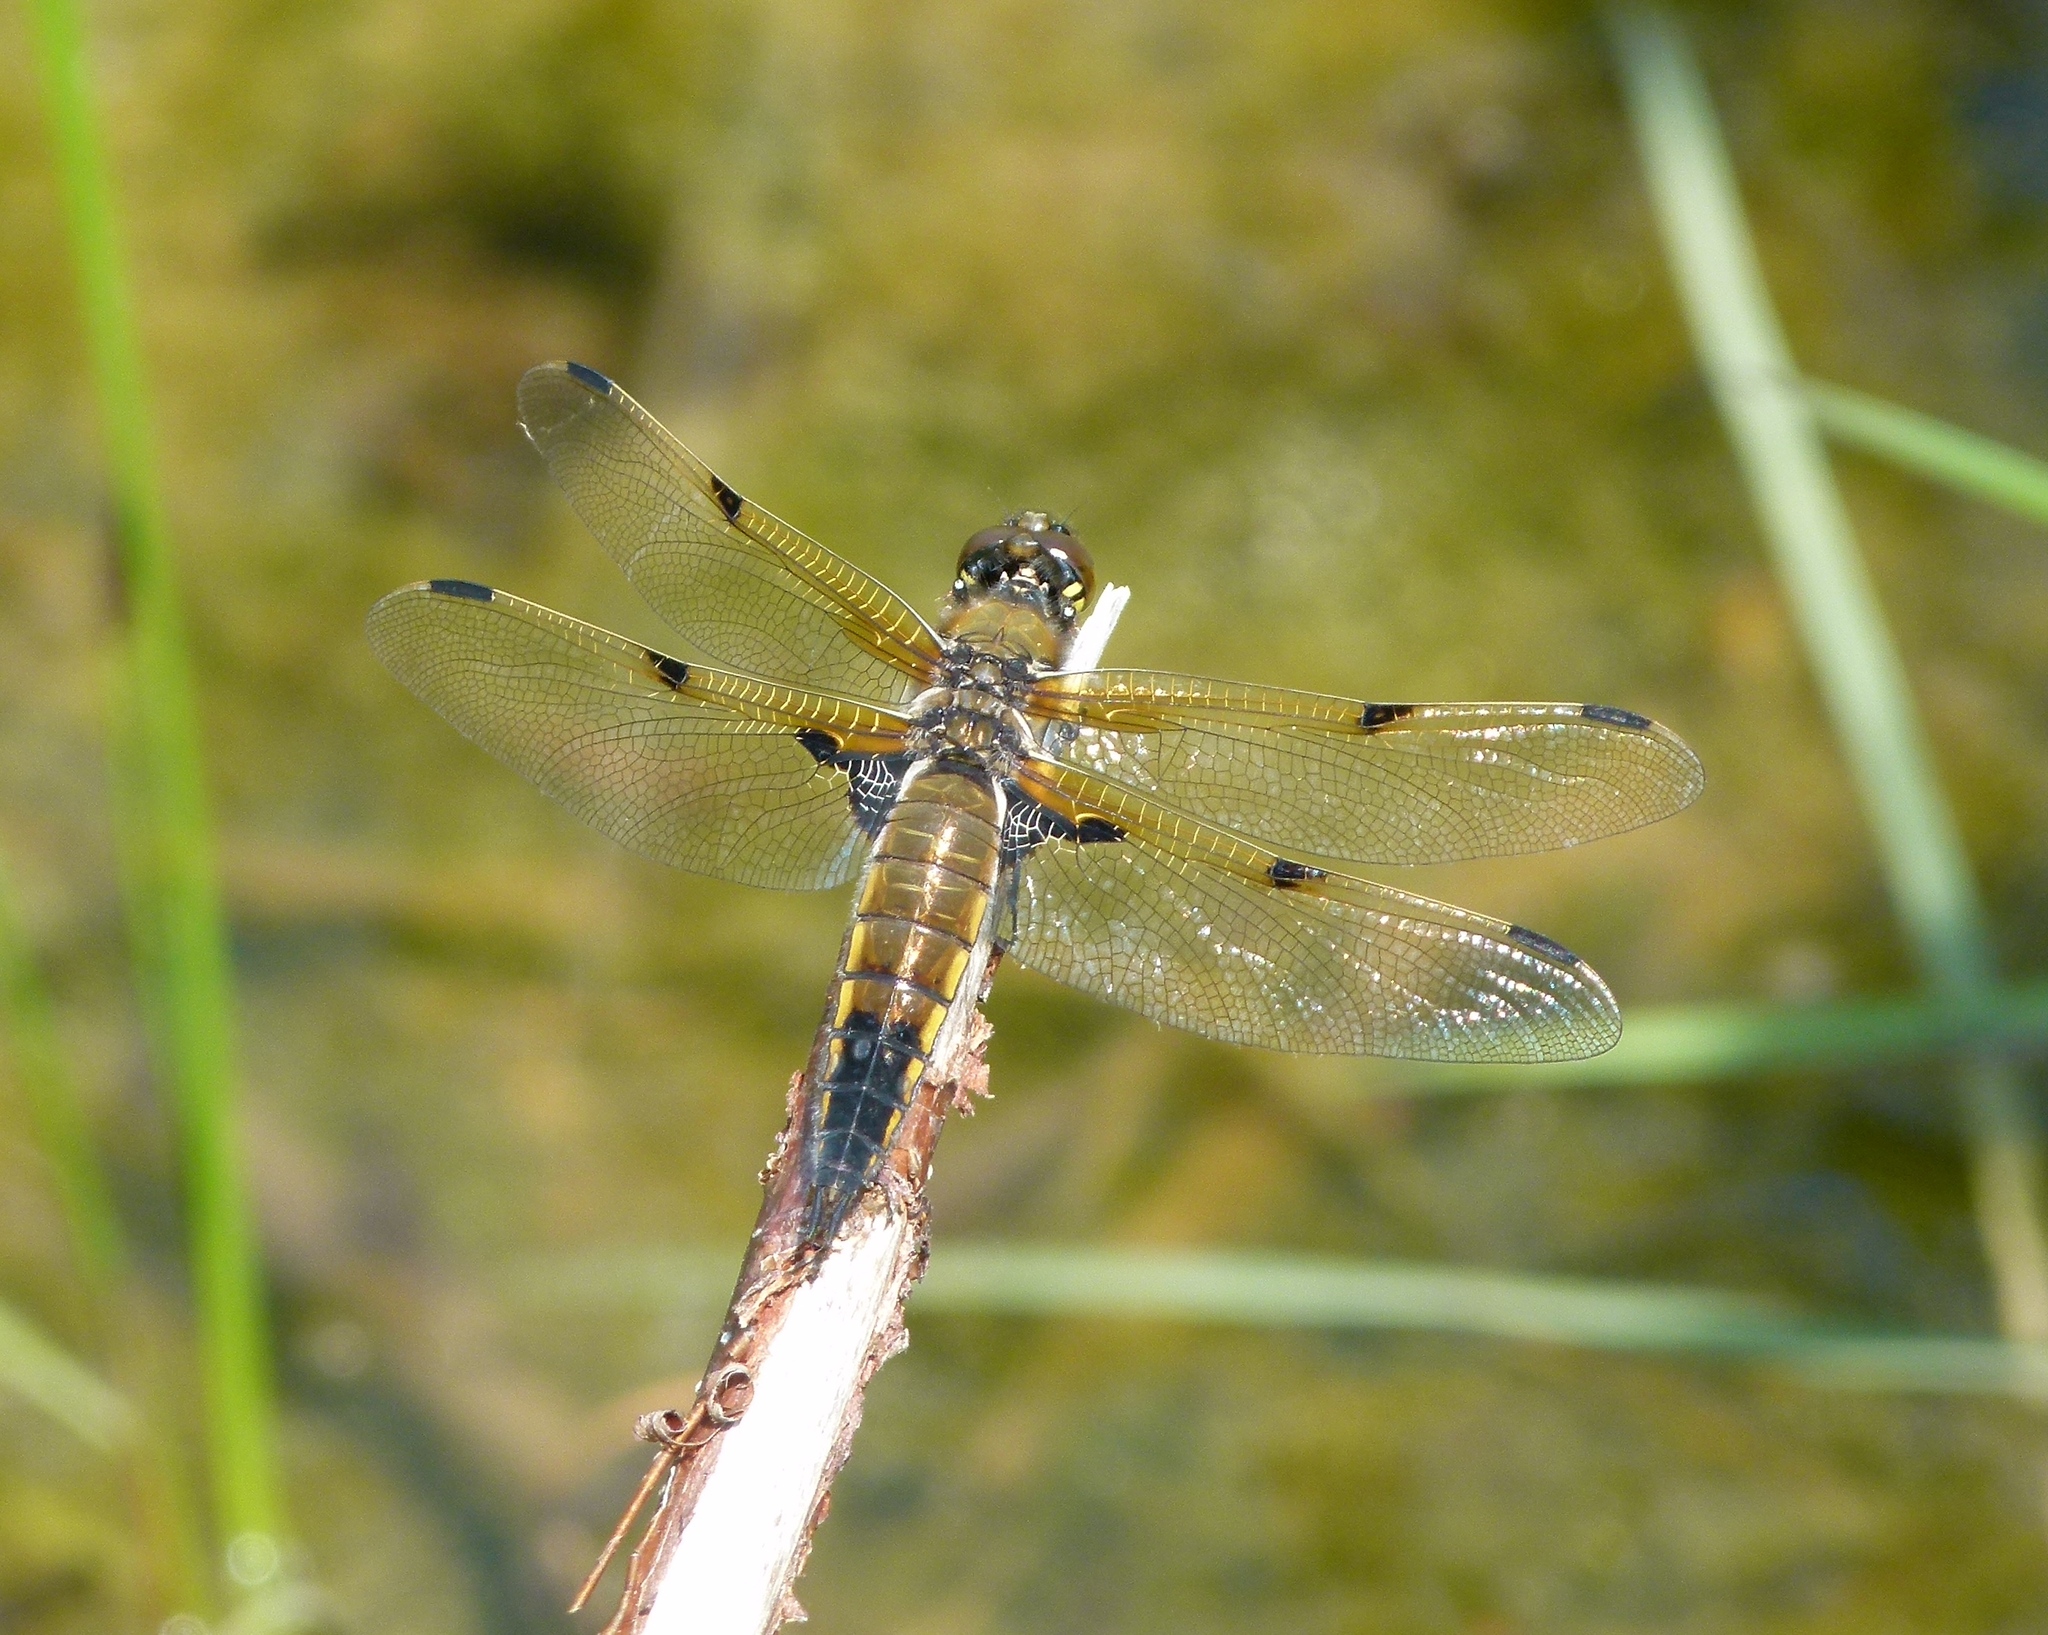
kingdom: Animalia
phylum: Arthropoda
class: Insecta
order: Odonata
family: Libellulidae
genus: Libellula
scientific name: Libellula quadrimaculata
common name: Four-spotted chaser
